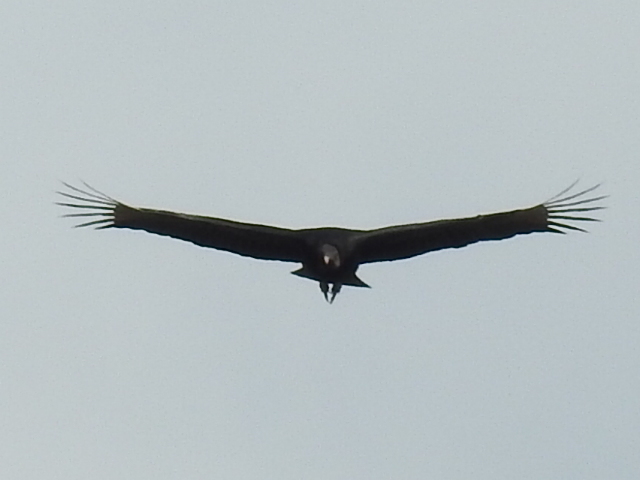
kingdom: Animalia
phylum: Chordata
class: Aves
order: Accipitriformes
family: Cathartidae
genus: Coragyps
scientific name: Coragyps atratus
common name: Black vulture
